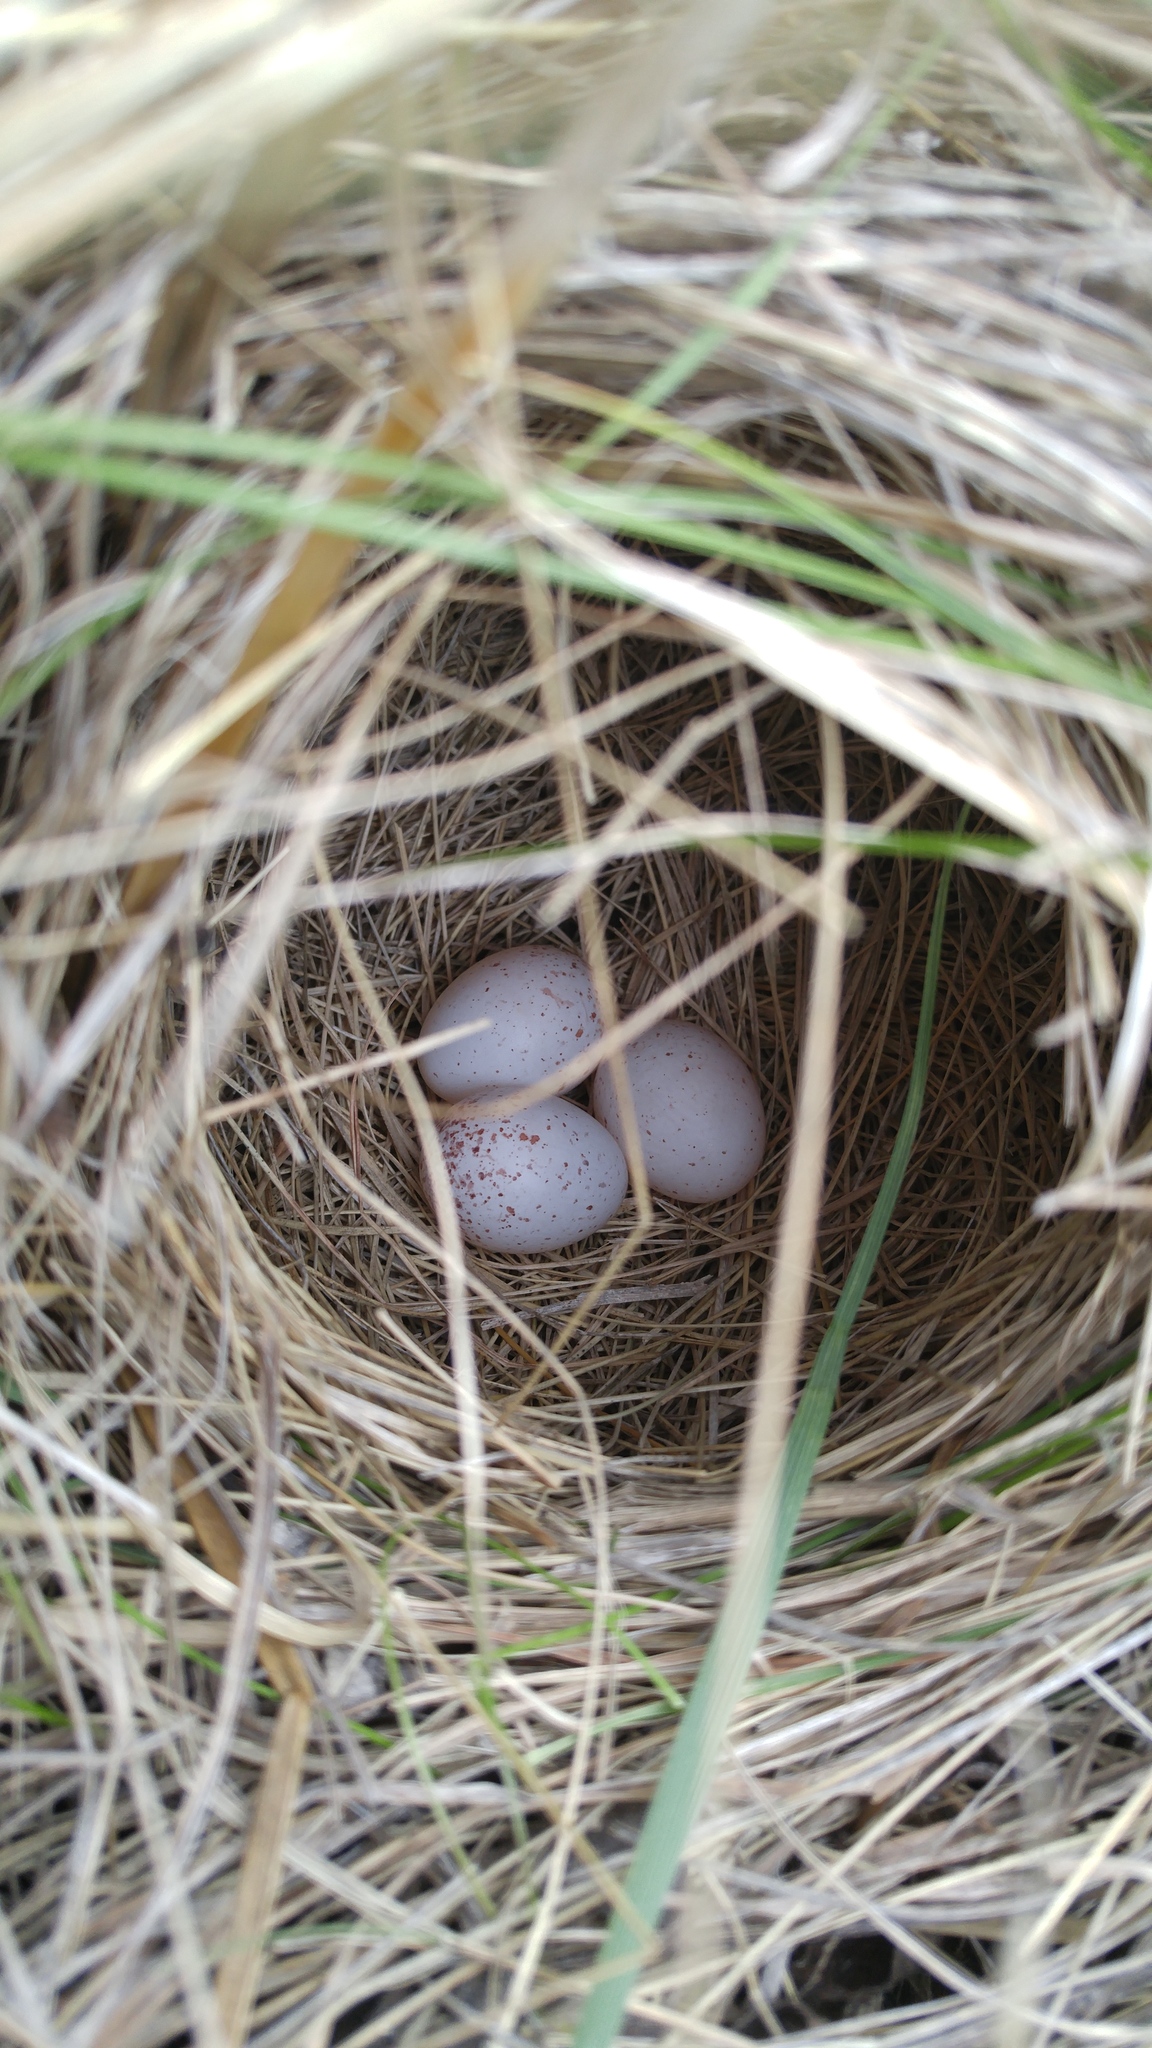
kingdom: Animalia
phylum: Chordata
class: Aves
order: Passeriformes
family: Icteridae
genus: Sturnella
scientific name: Sturnella neglecta
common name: Western meadowlark
